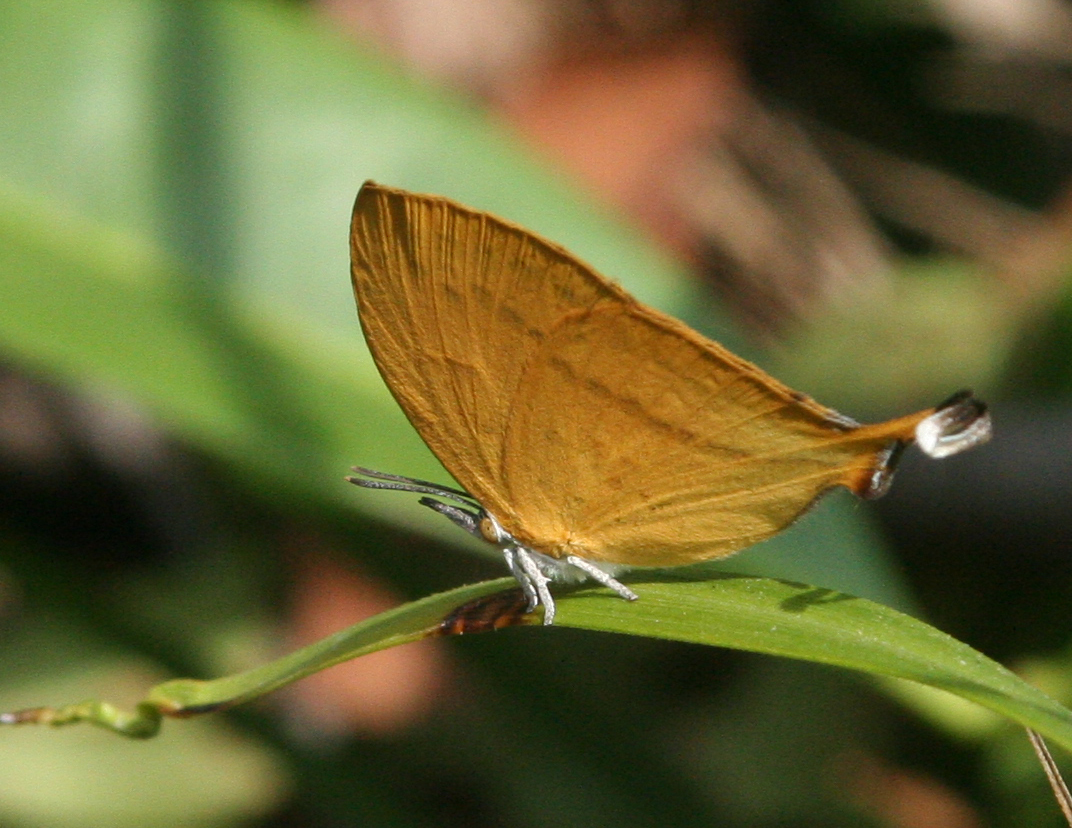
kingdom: Animalia
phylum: Arthropoda
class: Insecta
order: Lepidoptera
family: Lycaenidae
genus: Loxura
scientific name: Loxura atymnus
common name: Common yamfly
